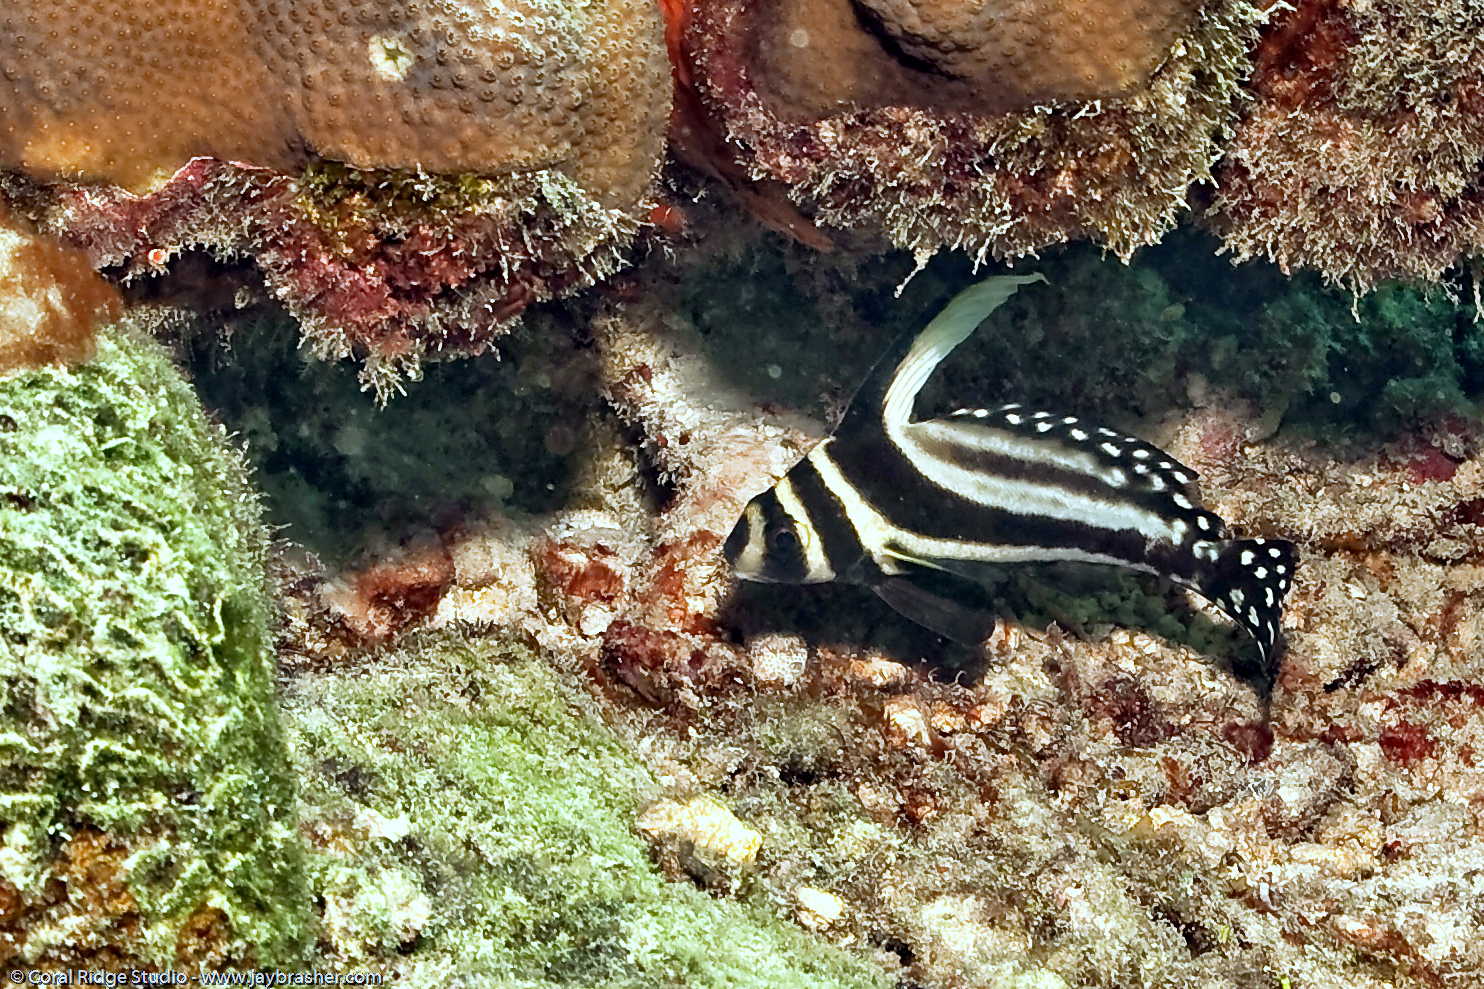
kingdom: Animalia
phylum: Chordata
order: Perciformes
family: Sciaenidae
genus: Equetus
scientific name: Equetus punctatus
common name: Spotted drum
